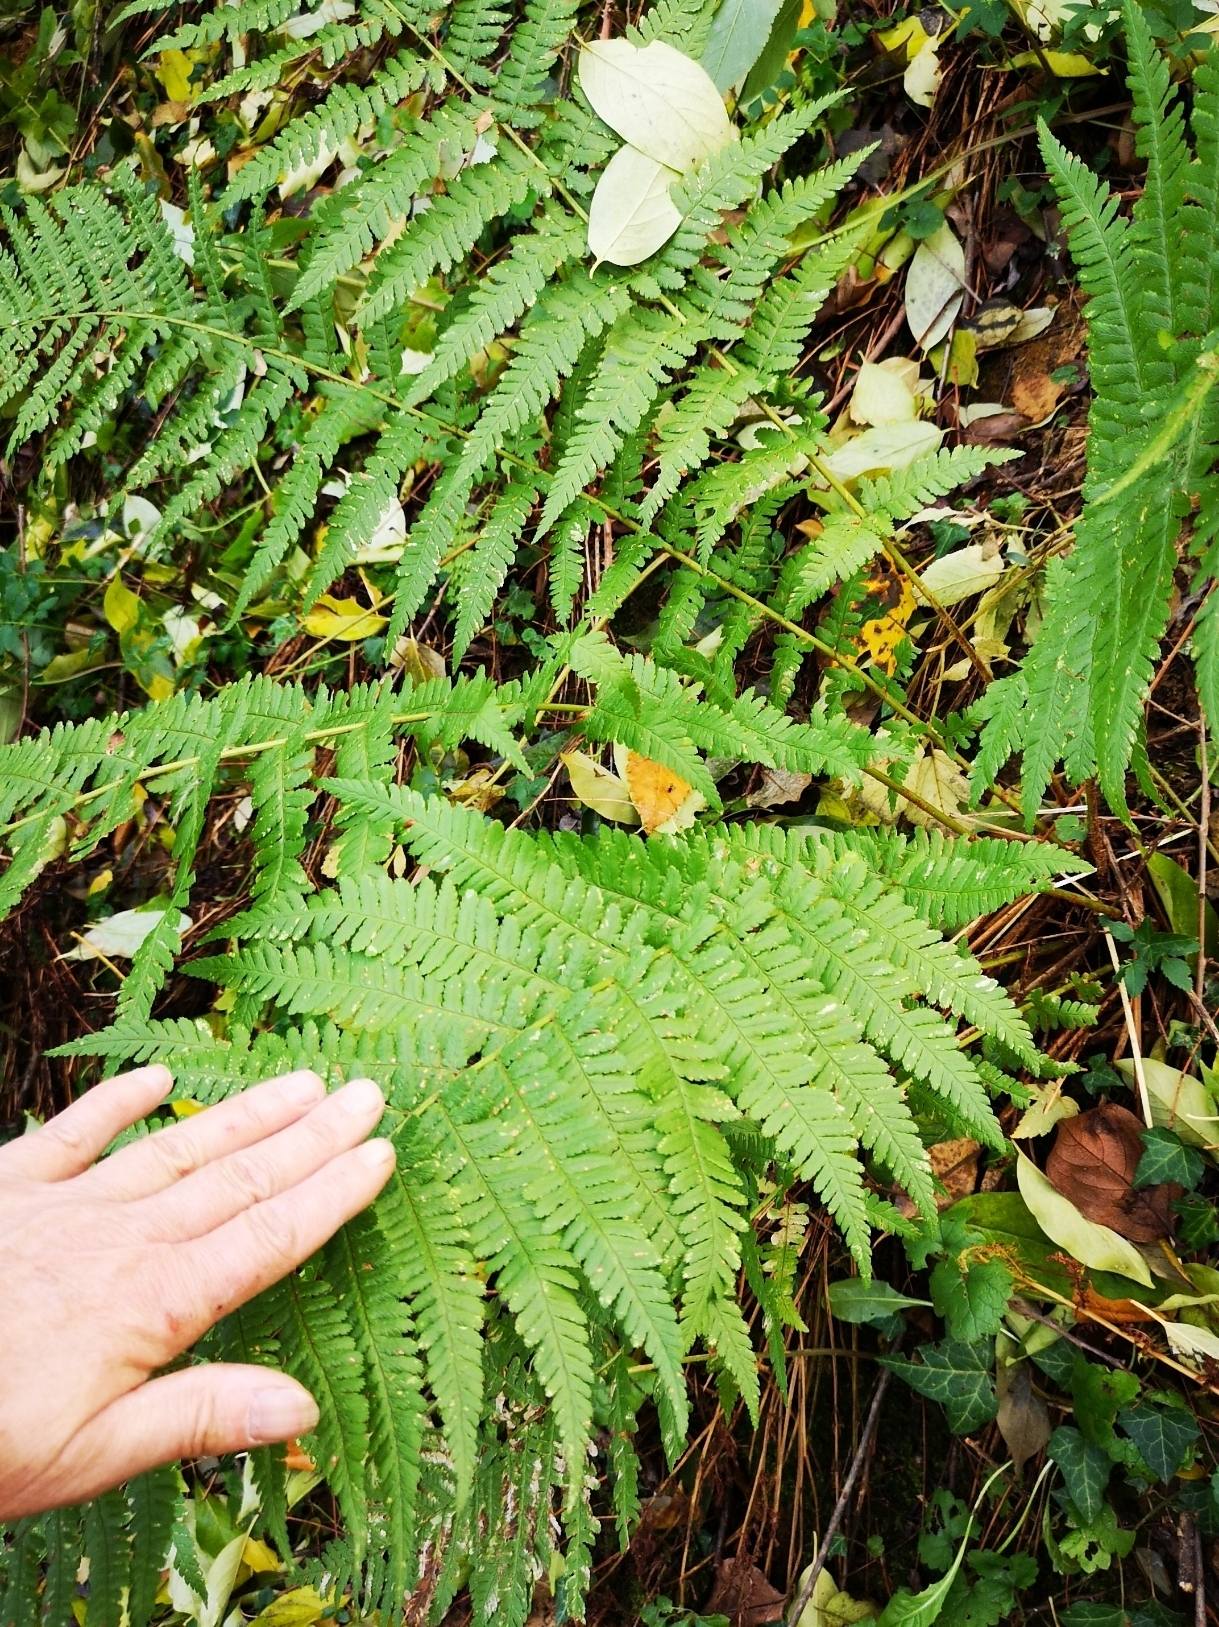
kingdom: Plantae
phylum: Tracheophyta
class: Polypodiopsida
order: Polypodiales
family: Dryopteridaceae
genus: Dryopteris
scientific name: Dryopteris filix-mas
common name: Male fern
